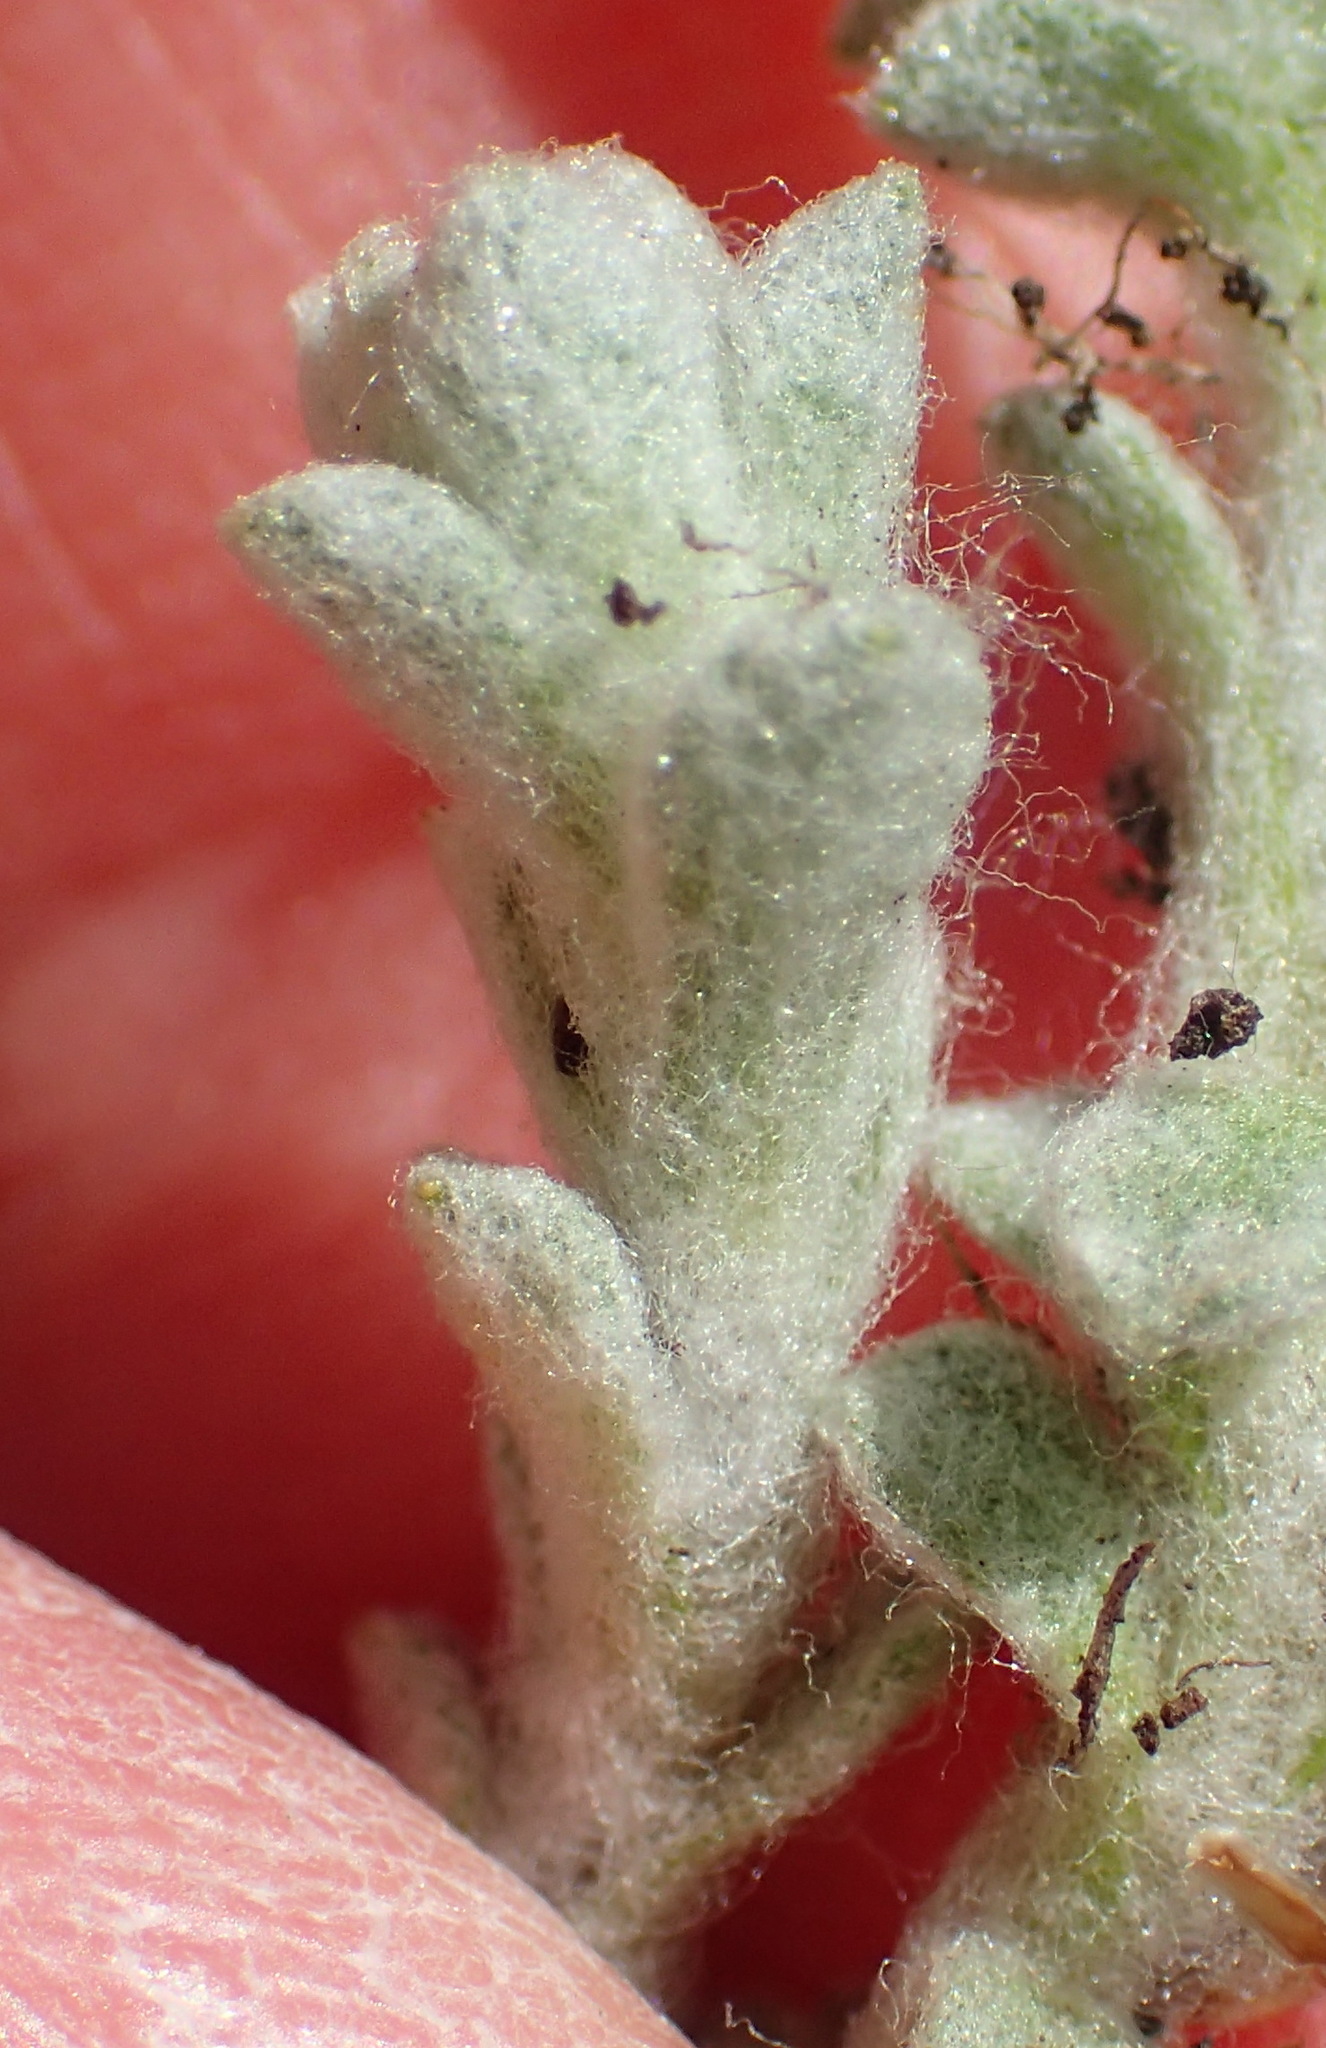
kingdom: Plantae
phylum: Tracheophyta
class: Magnoliopsida
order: Asterales
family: Asteraceae
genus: Helichrysum
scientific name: Helichrysum zwartbergense
